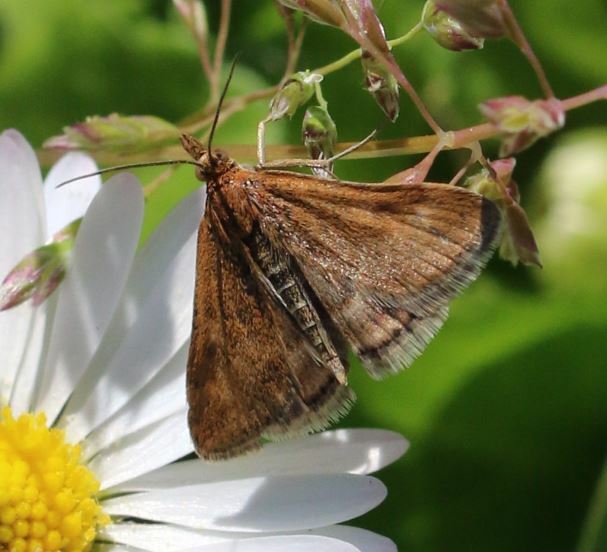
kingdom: Animalia
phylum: Arthropoda
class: Insecta
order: Lepidoptera
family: Crambidae
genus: Pyrausta
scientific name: Pyrausta despicata
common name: Straw-barred pearl
